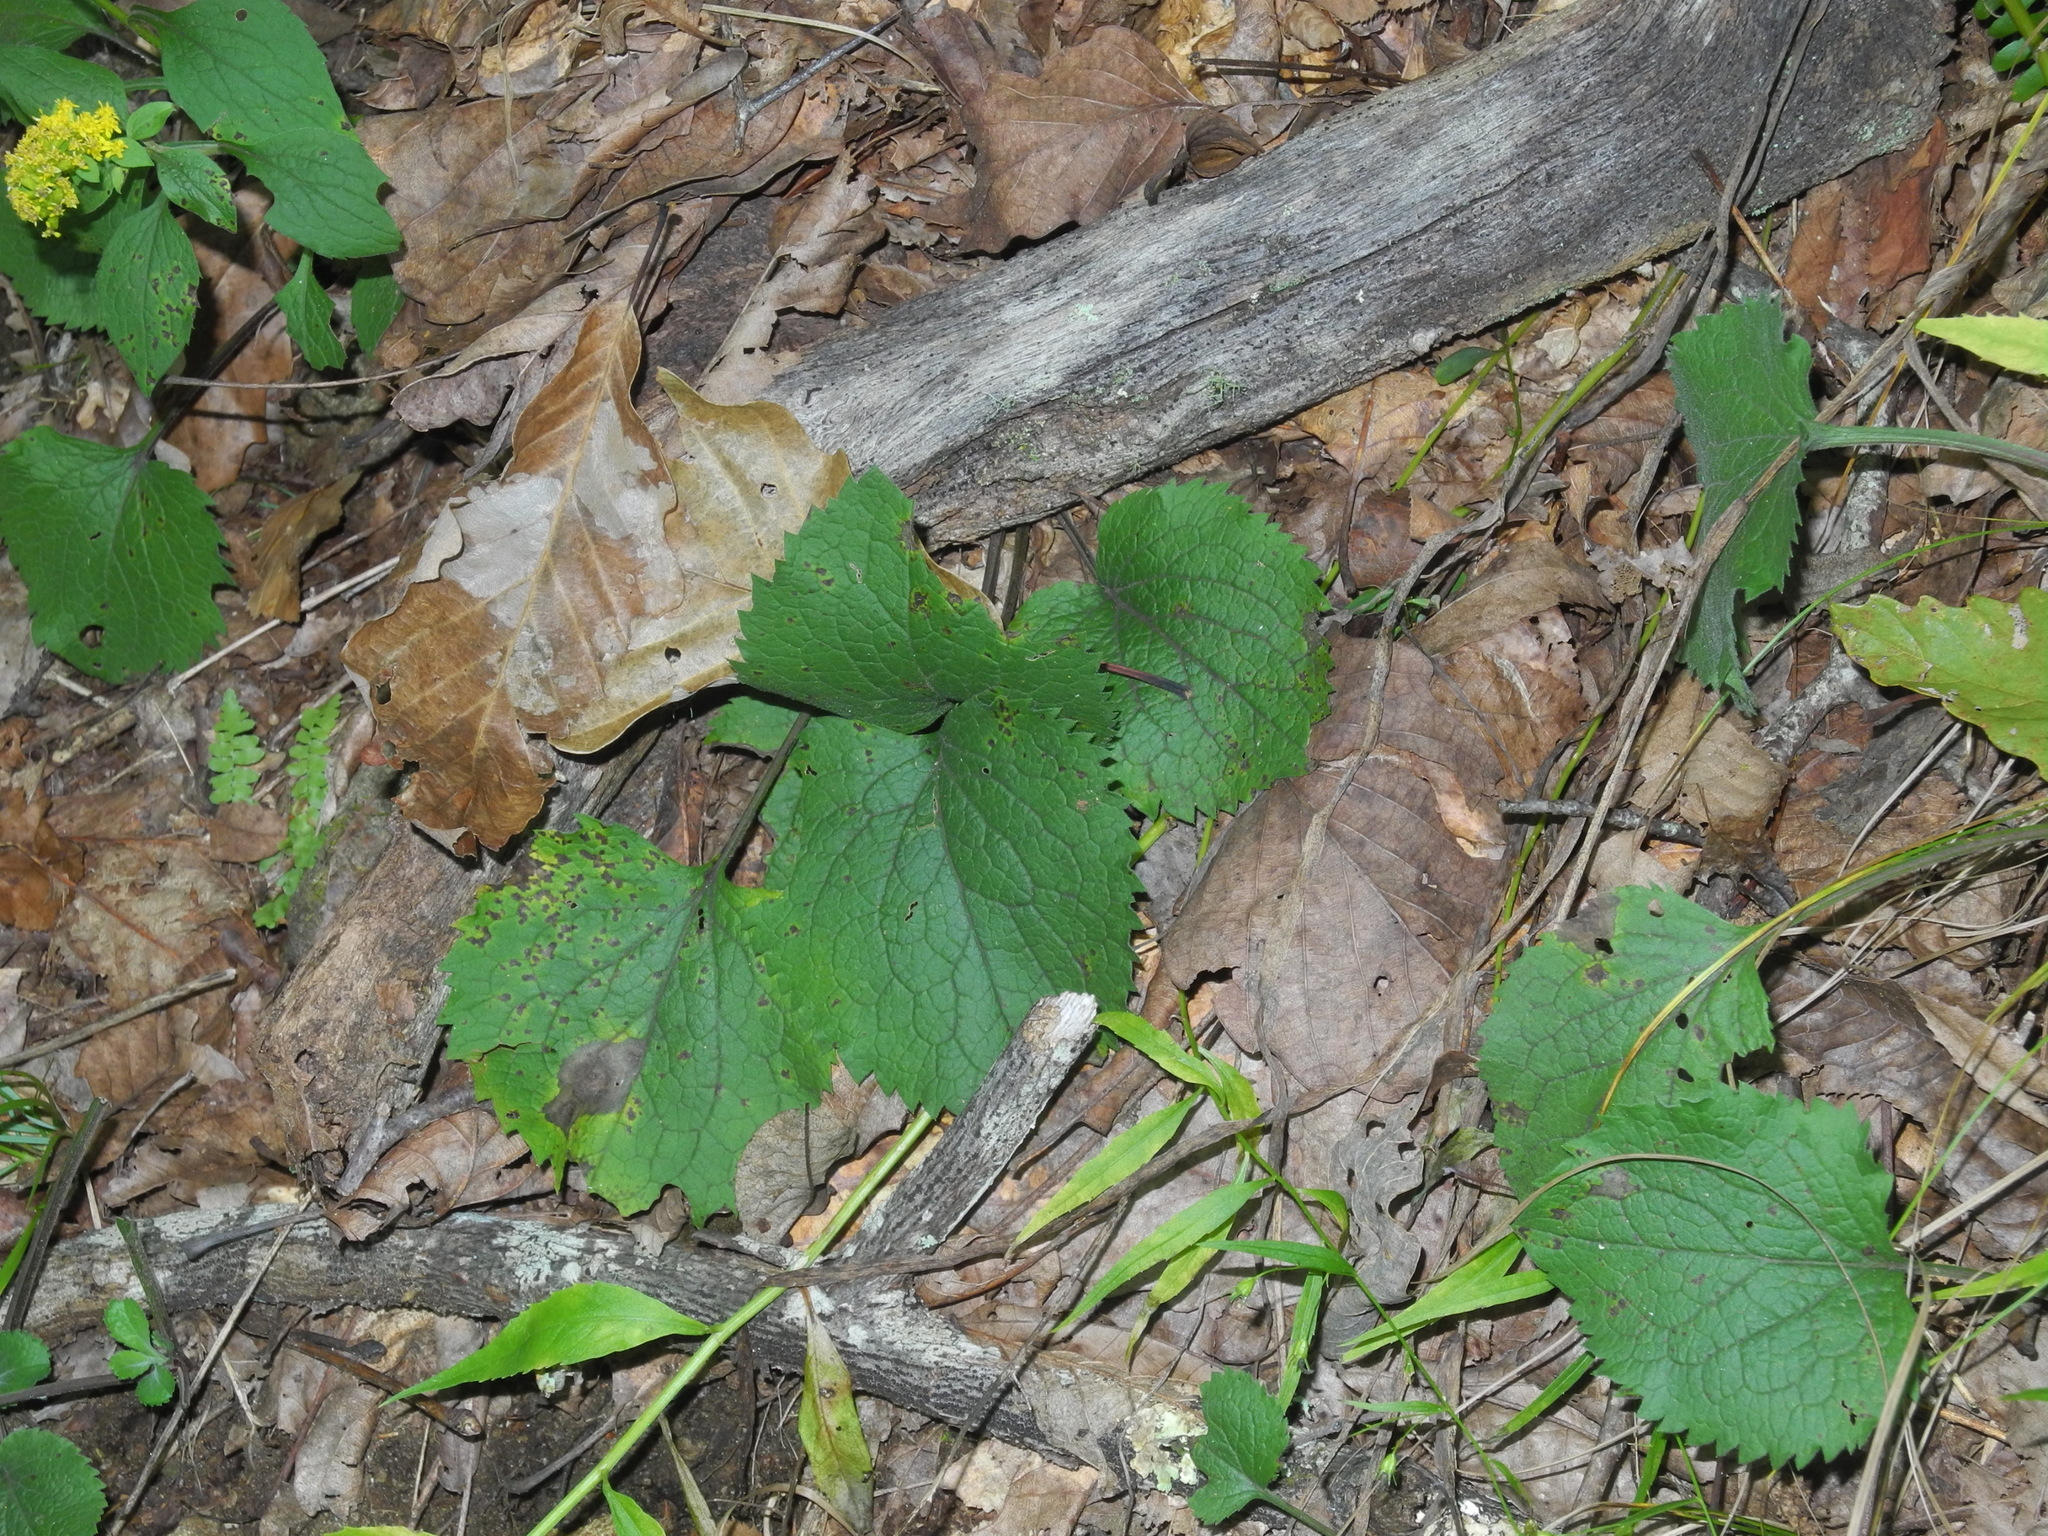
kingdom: Plantae
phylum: Tracheophyta
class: Magnoliopsida
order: Asterales
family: Asteraceae
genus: Solidago
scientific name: Solidago sphacelata
